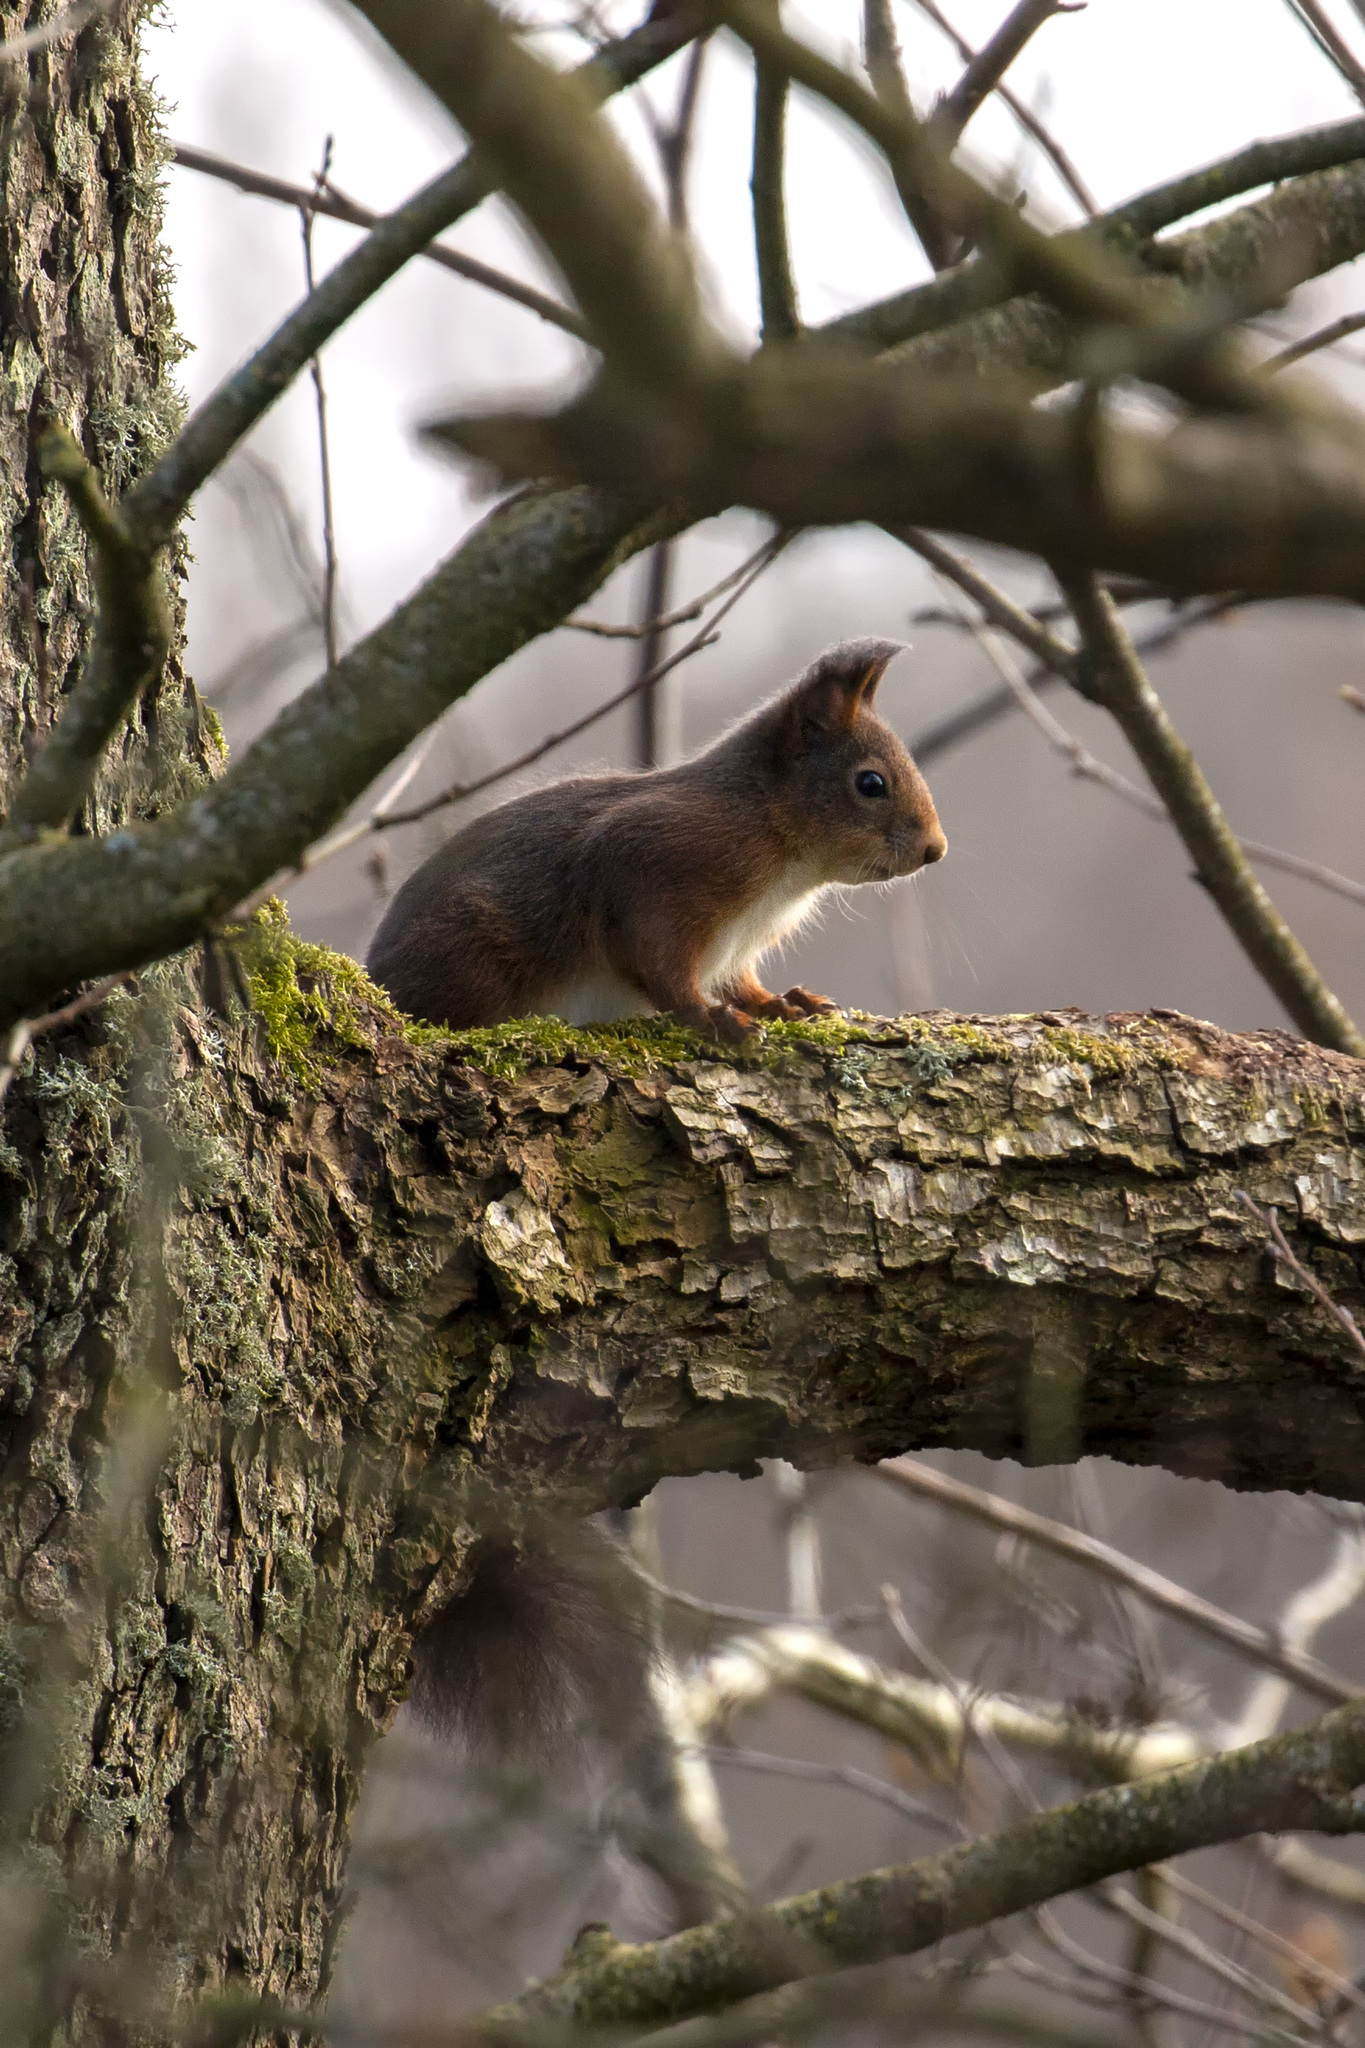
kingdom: Animalia
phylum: Chordata
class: Mammalia
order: Rodentia
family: Sciuridae
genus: Sciurus
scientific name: Sciurus vulgaris
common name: Eurasian red squirrel
